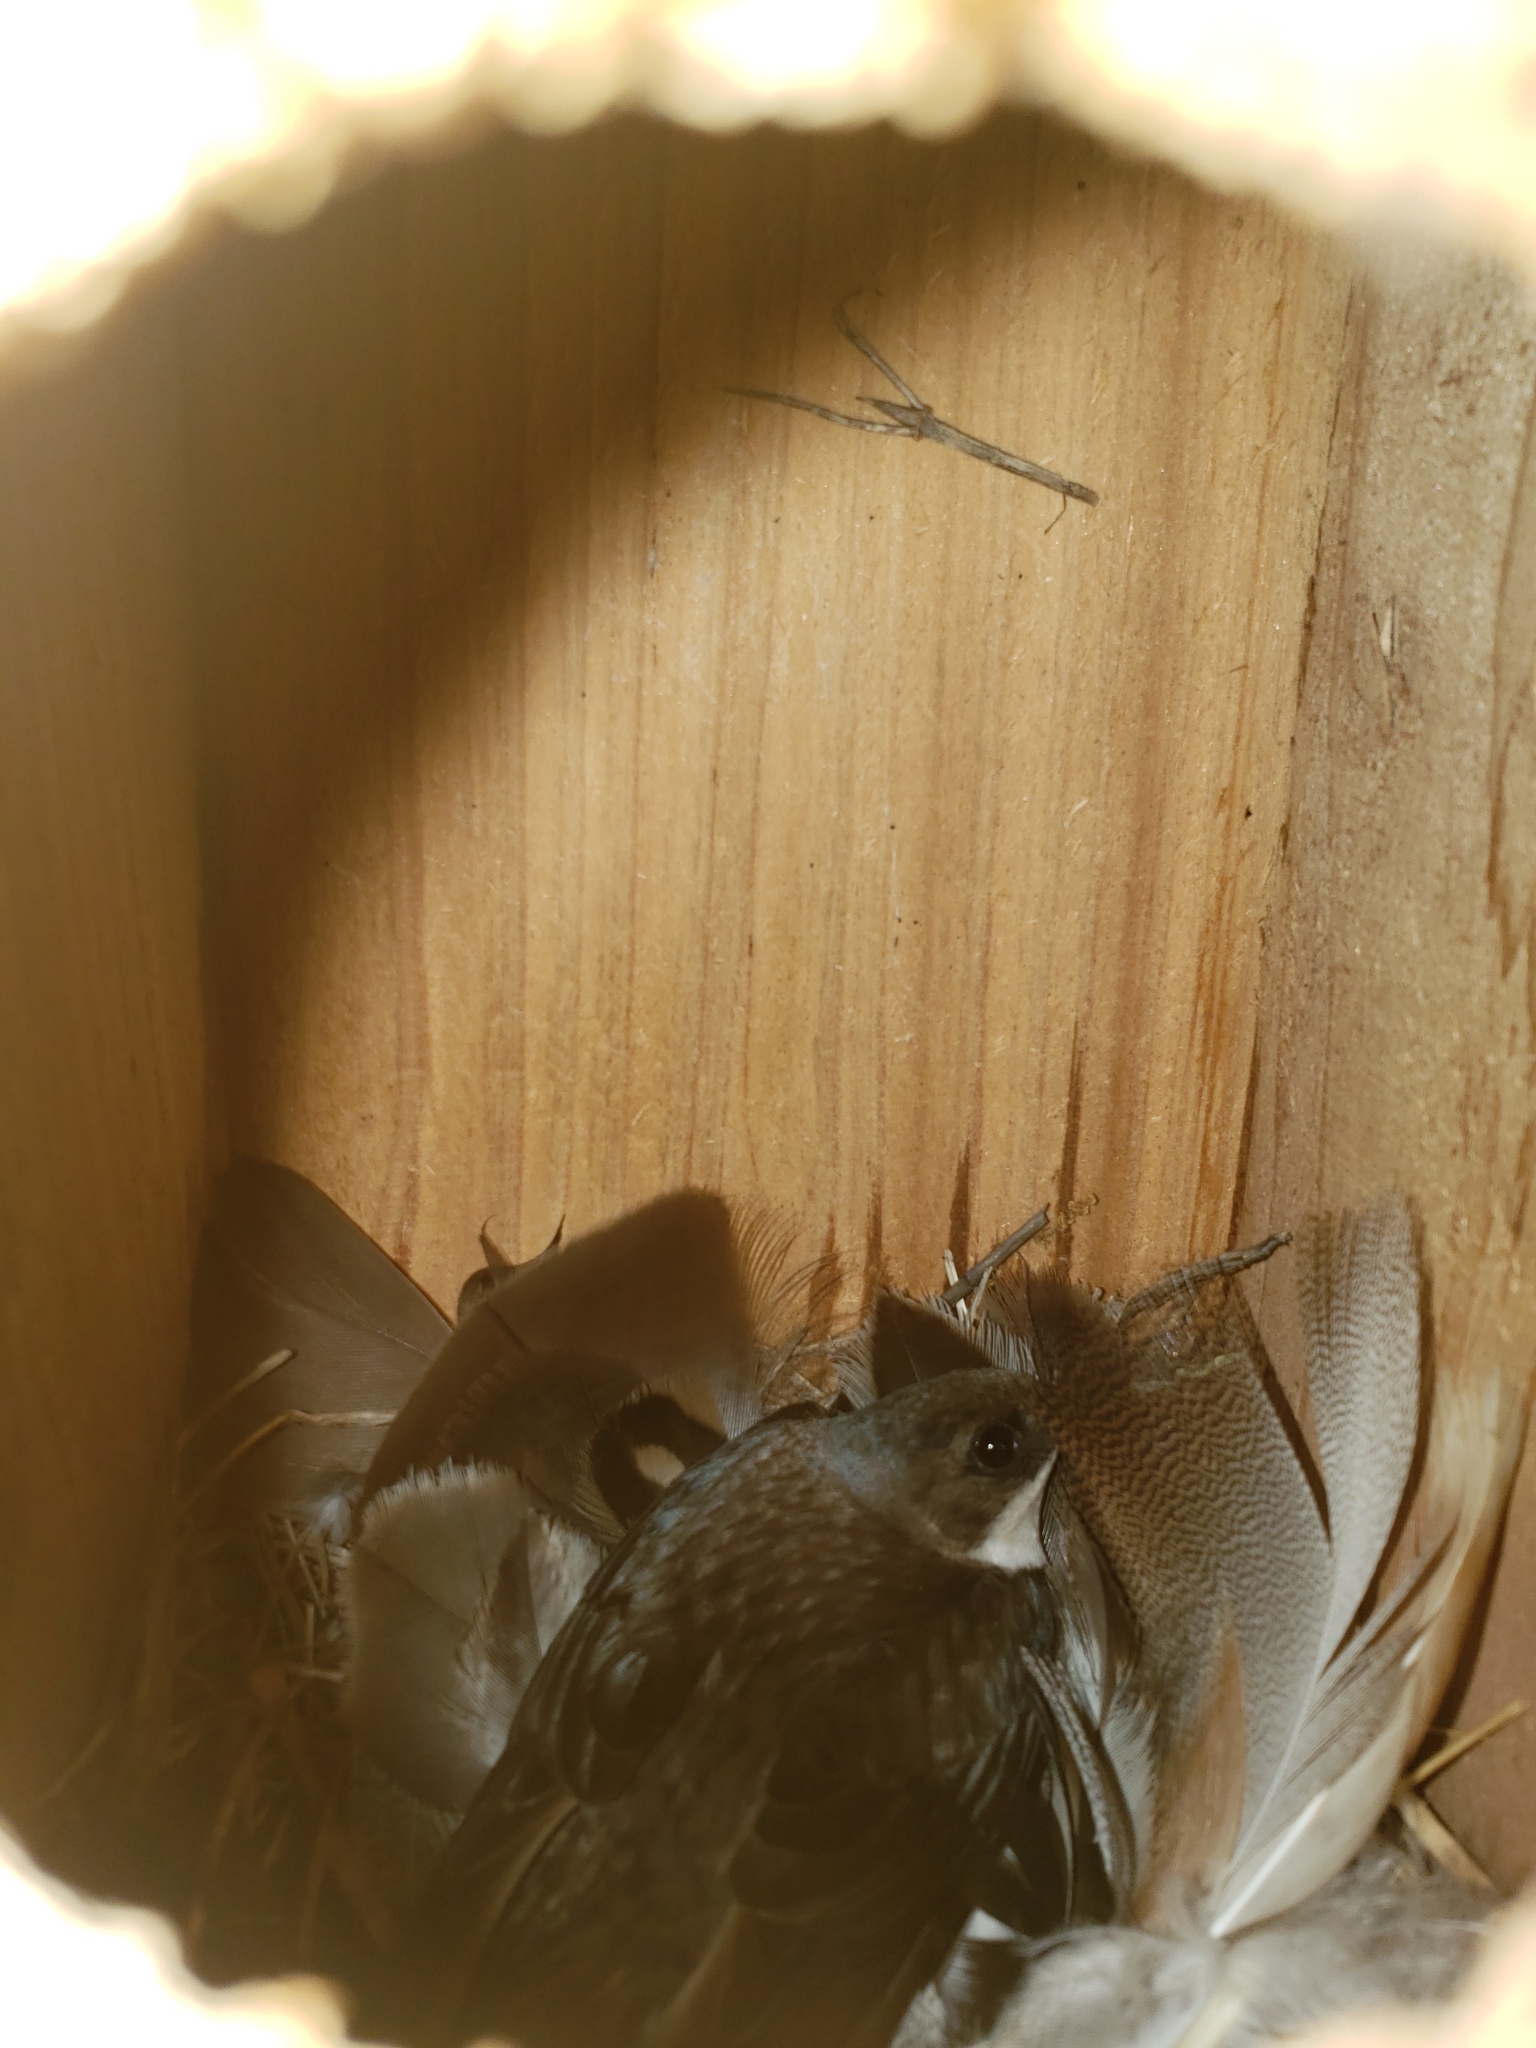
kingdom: Animalia
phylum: Chordata
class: Aves
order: Passeriformes
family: Hirundinidae
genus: Tachycineta
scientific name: Tachycineta bicolor
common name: Tree swallow
